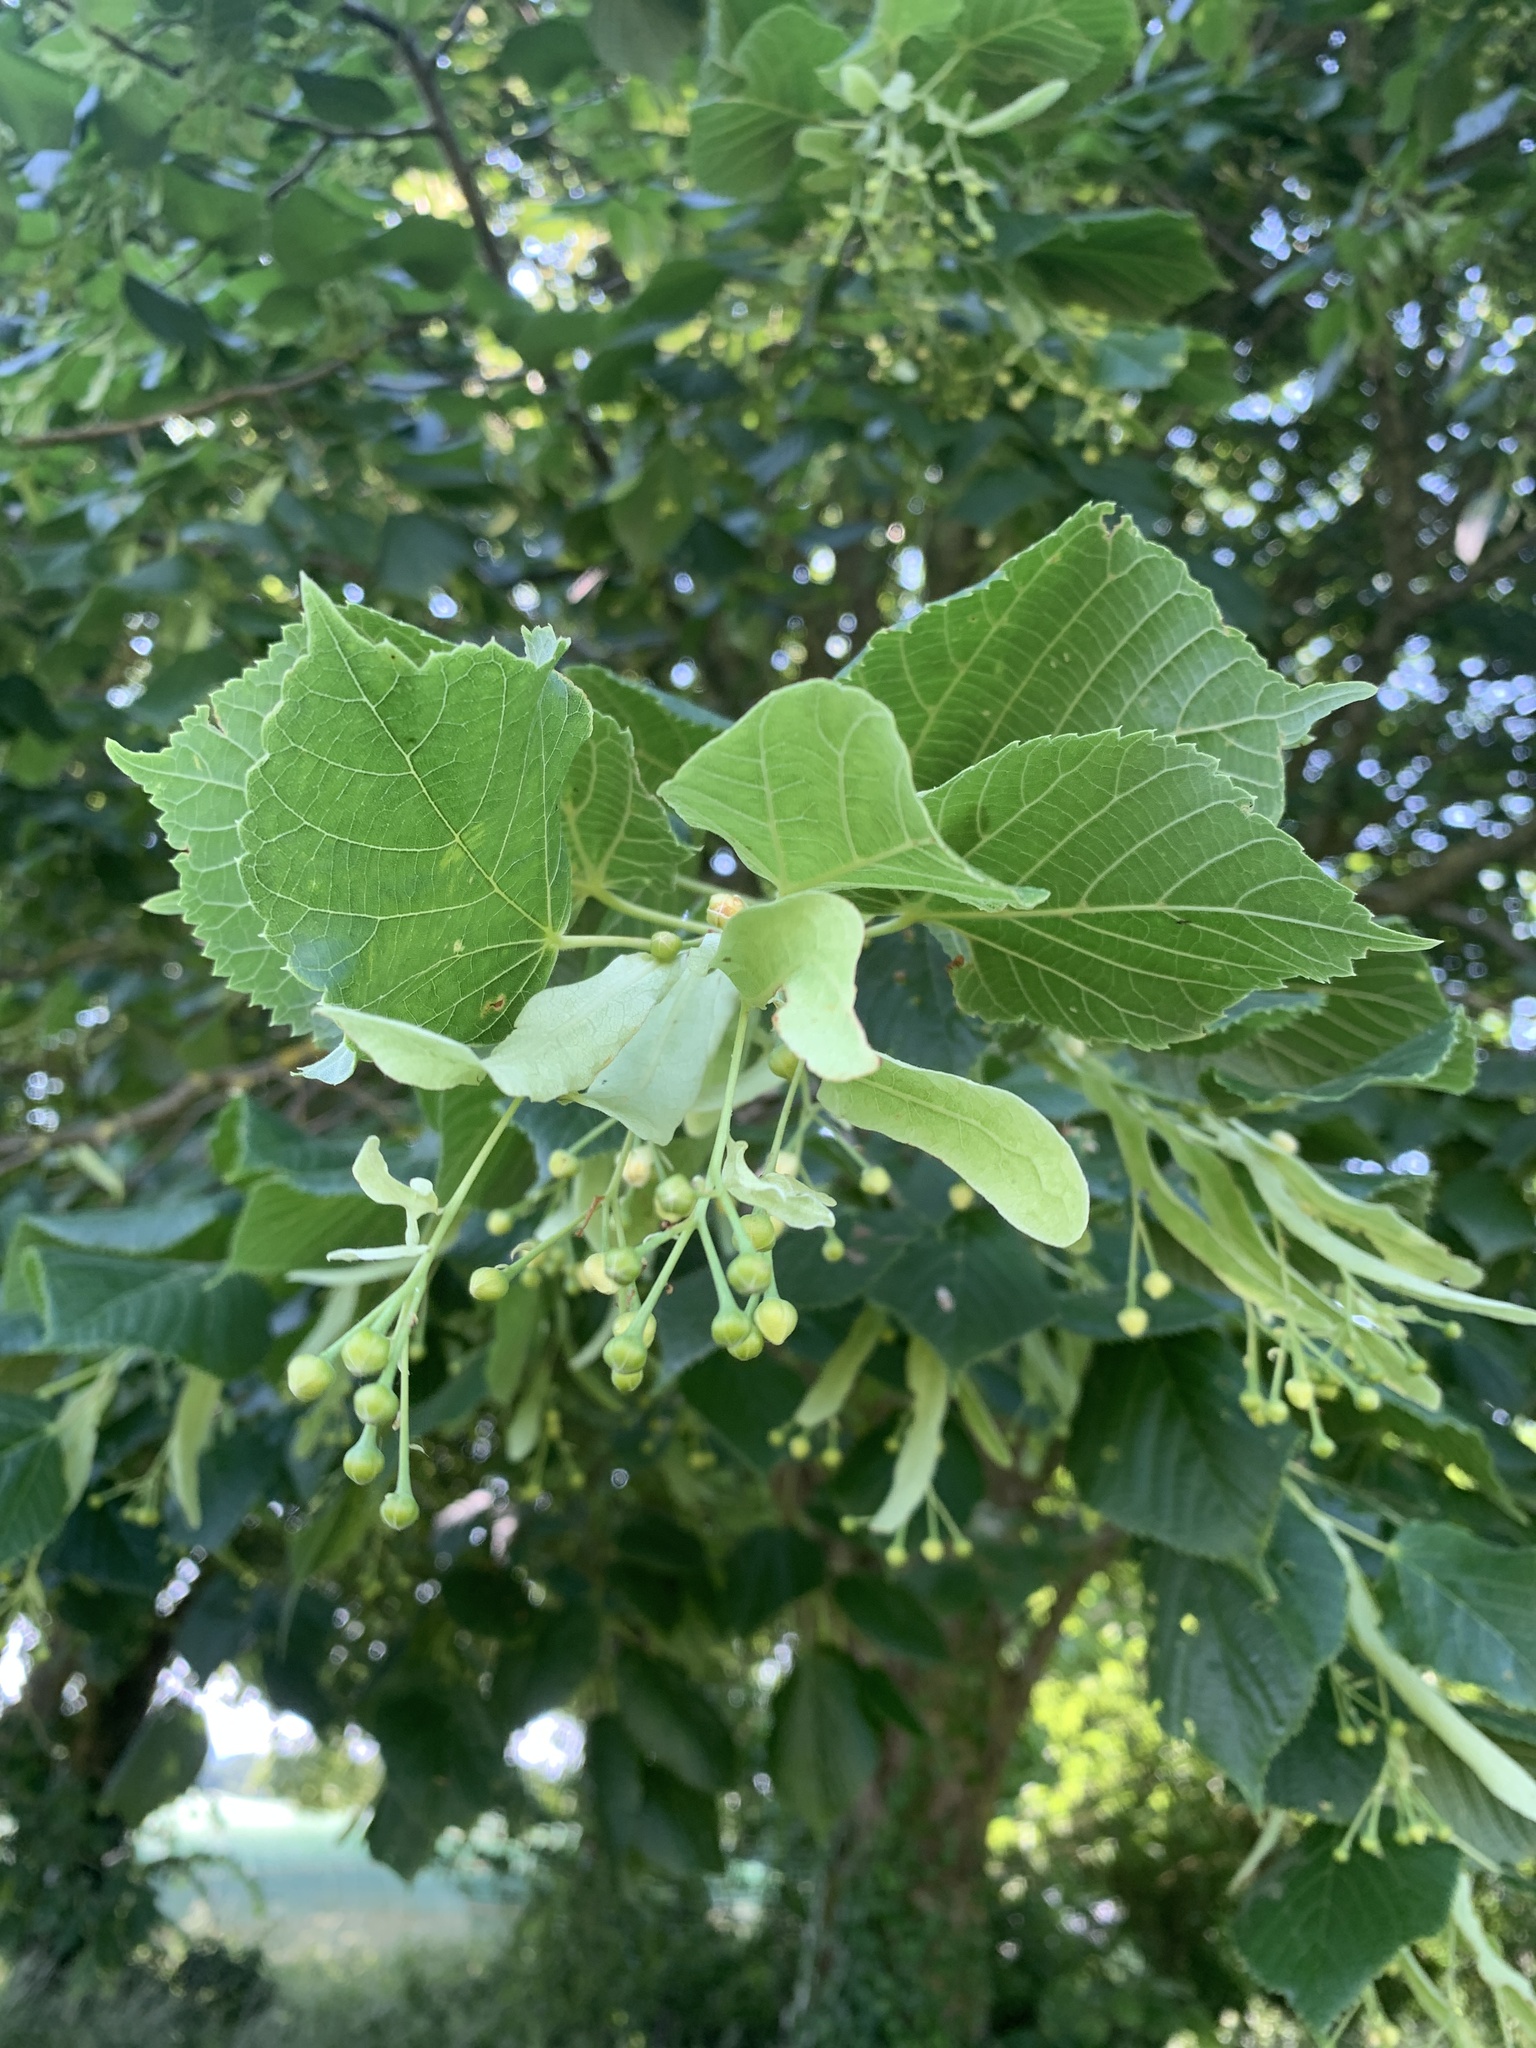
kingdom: Plantae
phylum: Tracheophyta
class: Magnoliopsida
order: Malvales
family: Malvaceae
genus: Tilia
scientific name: Tilia platyphyllos
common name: Large-leaved lime
